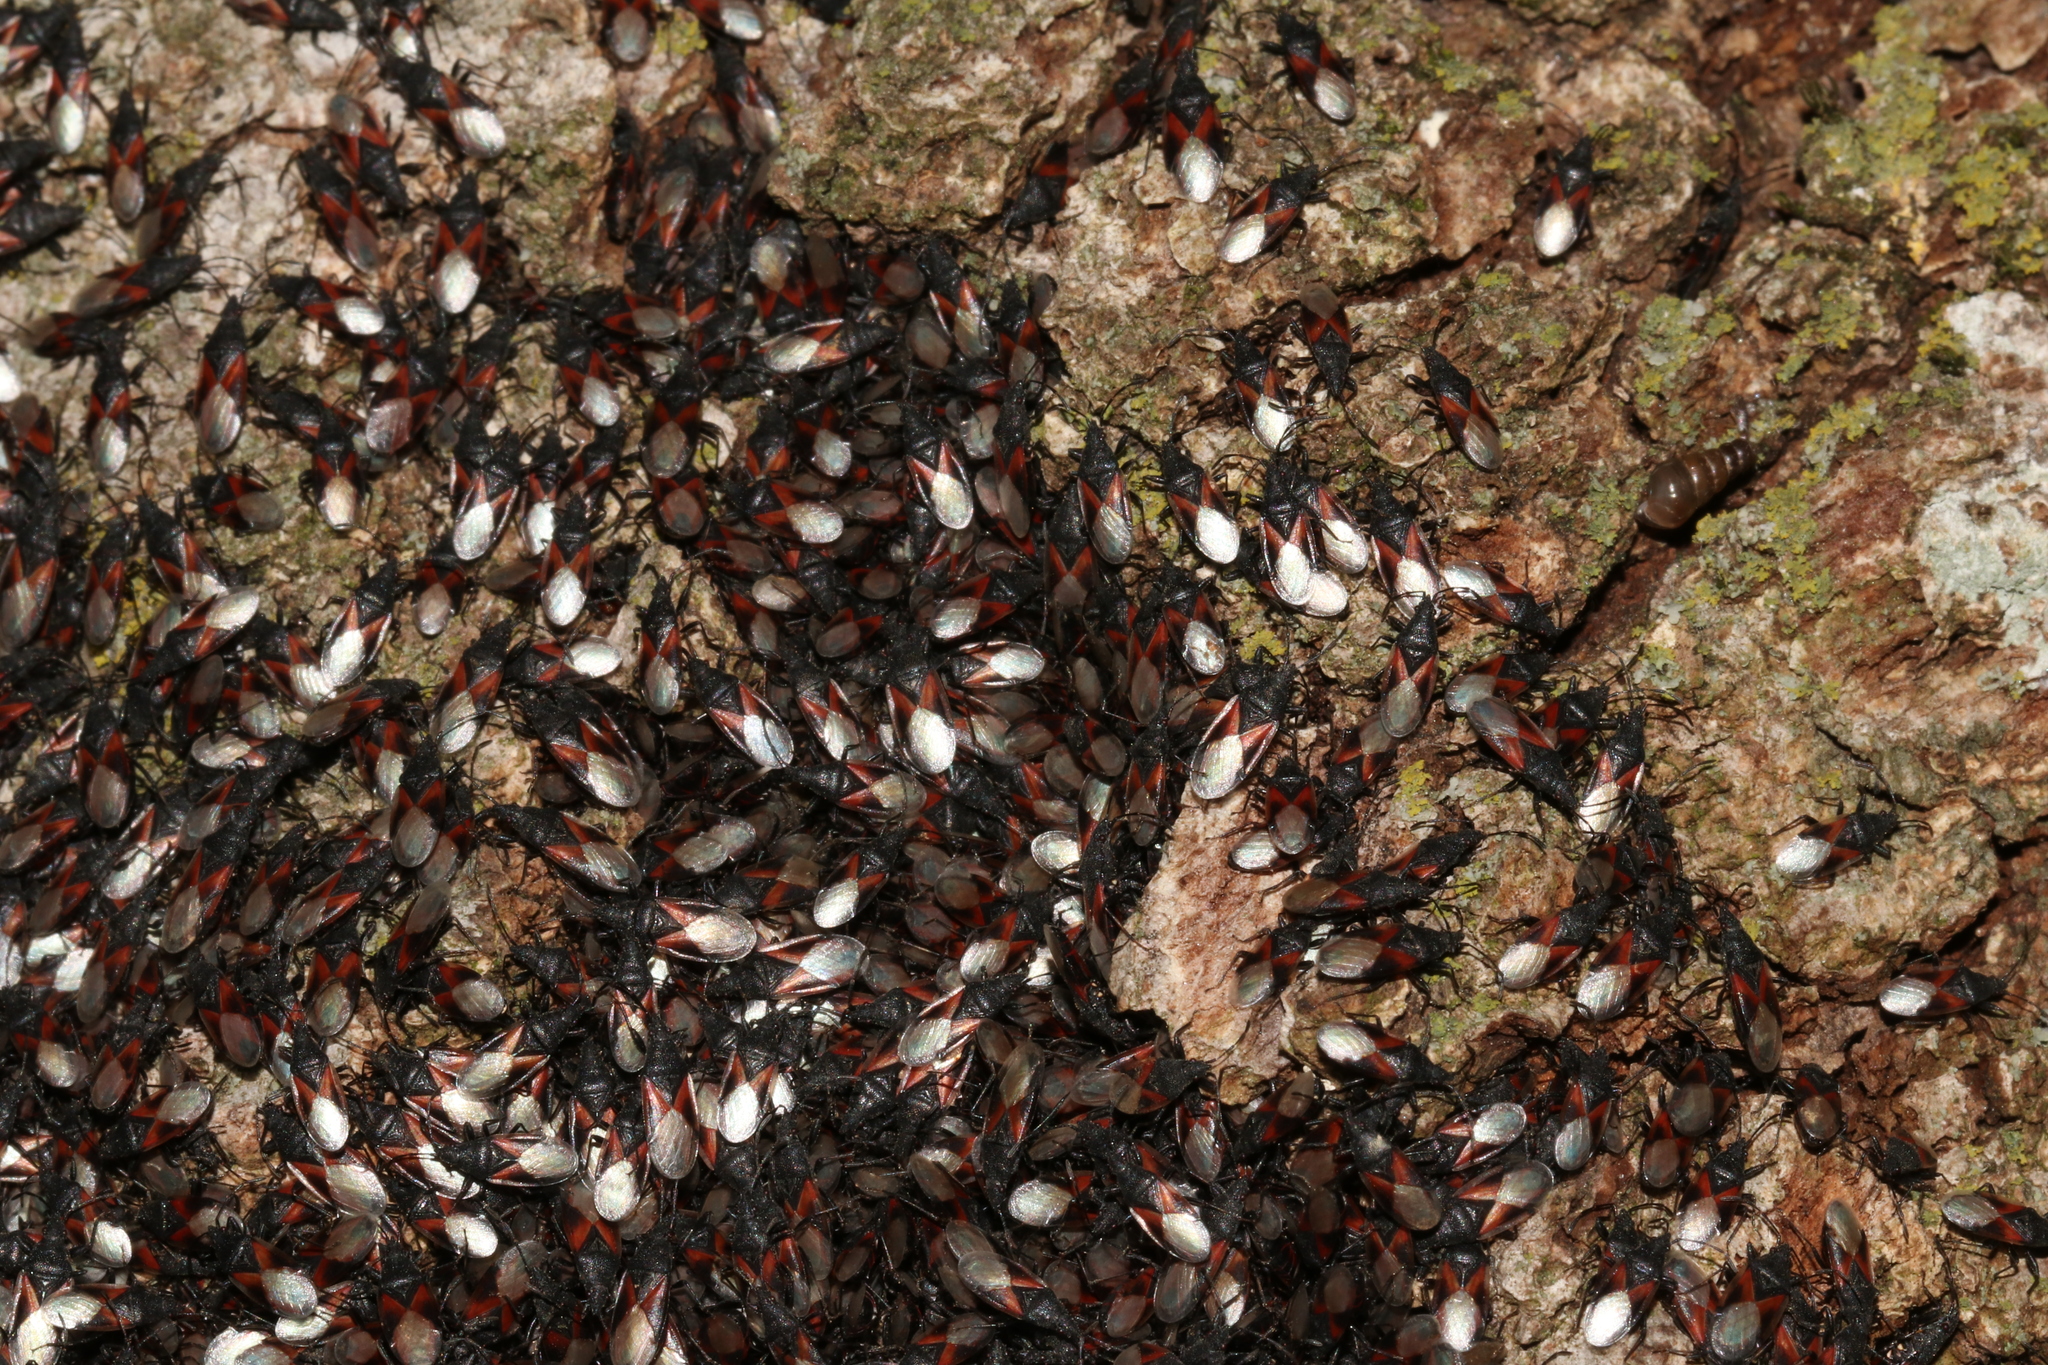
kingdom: Animalia
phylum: Arthropoda
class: Insecta
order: Hemiptera
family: Oxycarenidae
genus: Oxycarenus
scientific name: Oxycarenus lavaterae
